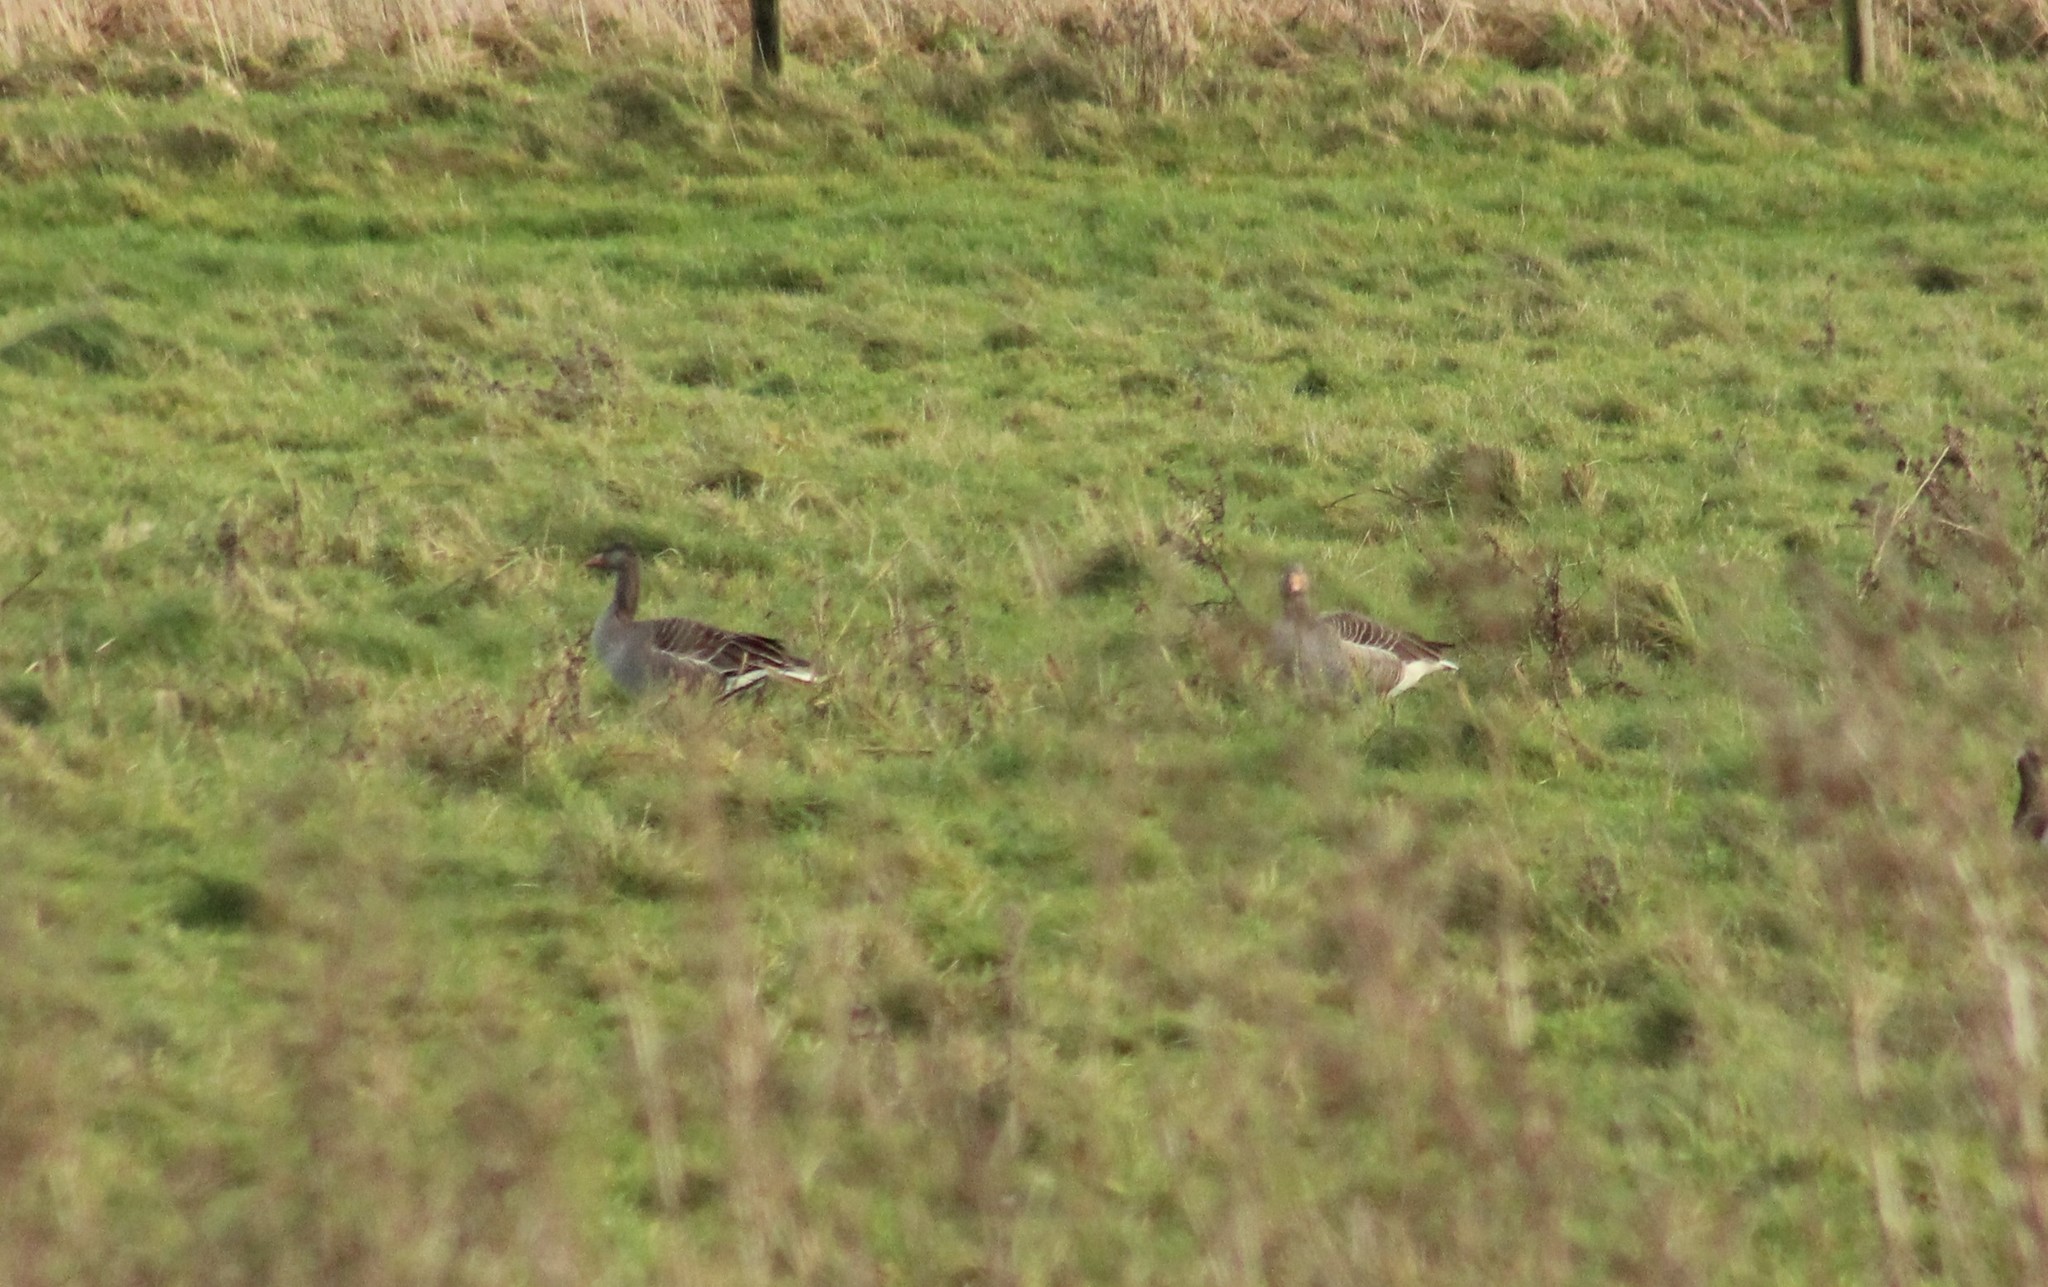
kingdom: Animalia
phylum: Chordata
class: Aves
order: Anseriformes
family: Anatidae
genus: Anser
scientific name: Anser anser
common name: Greylag goose
